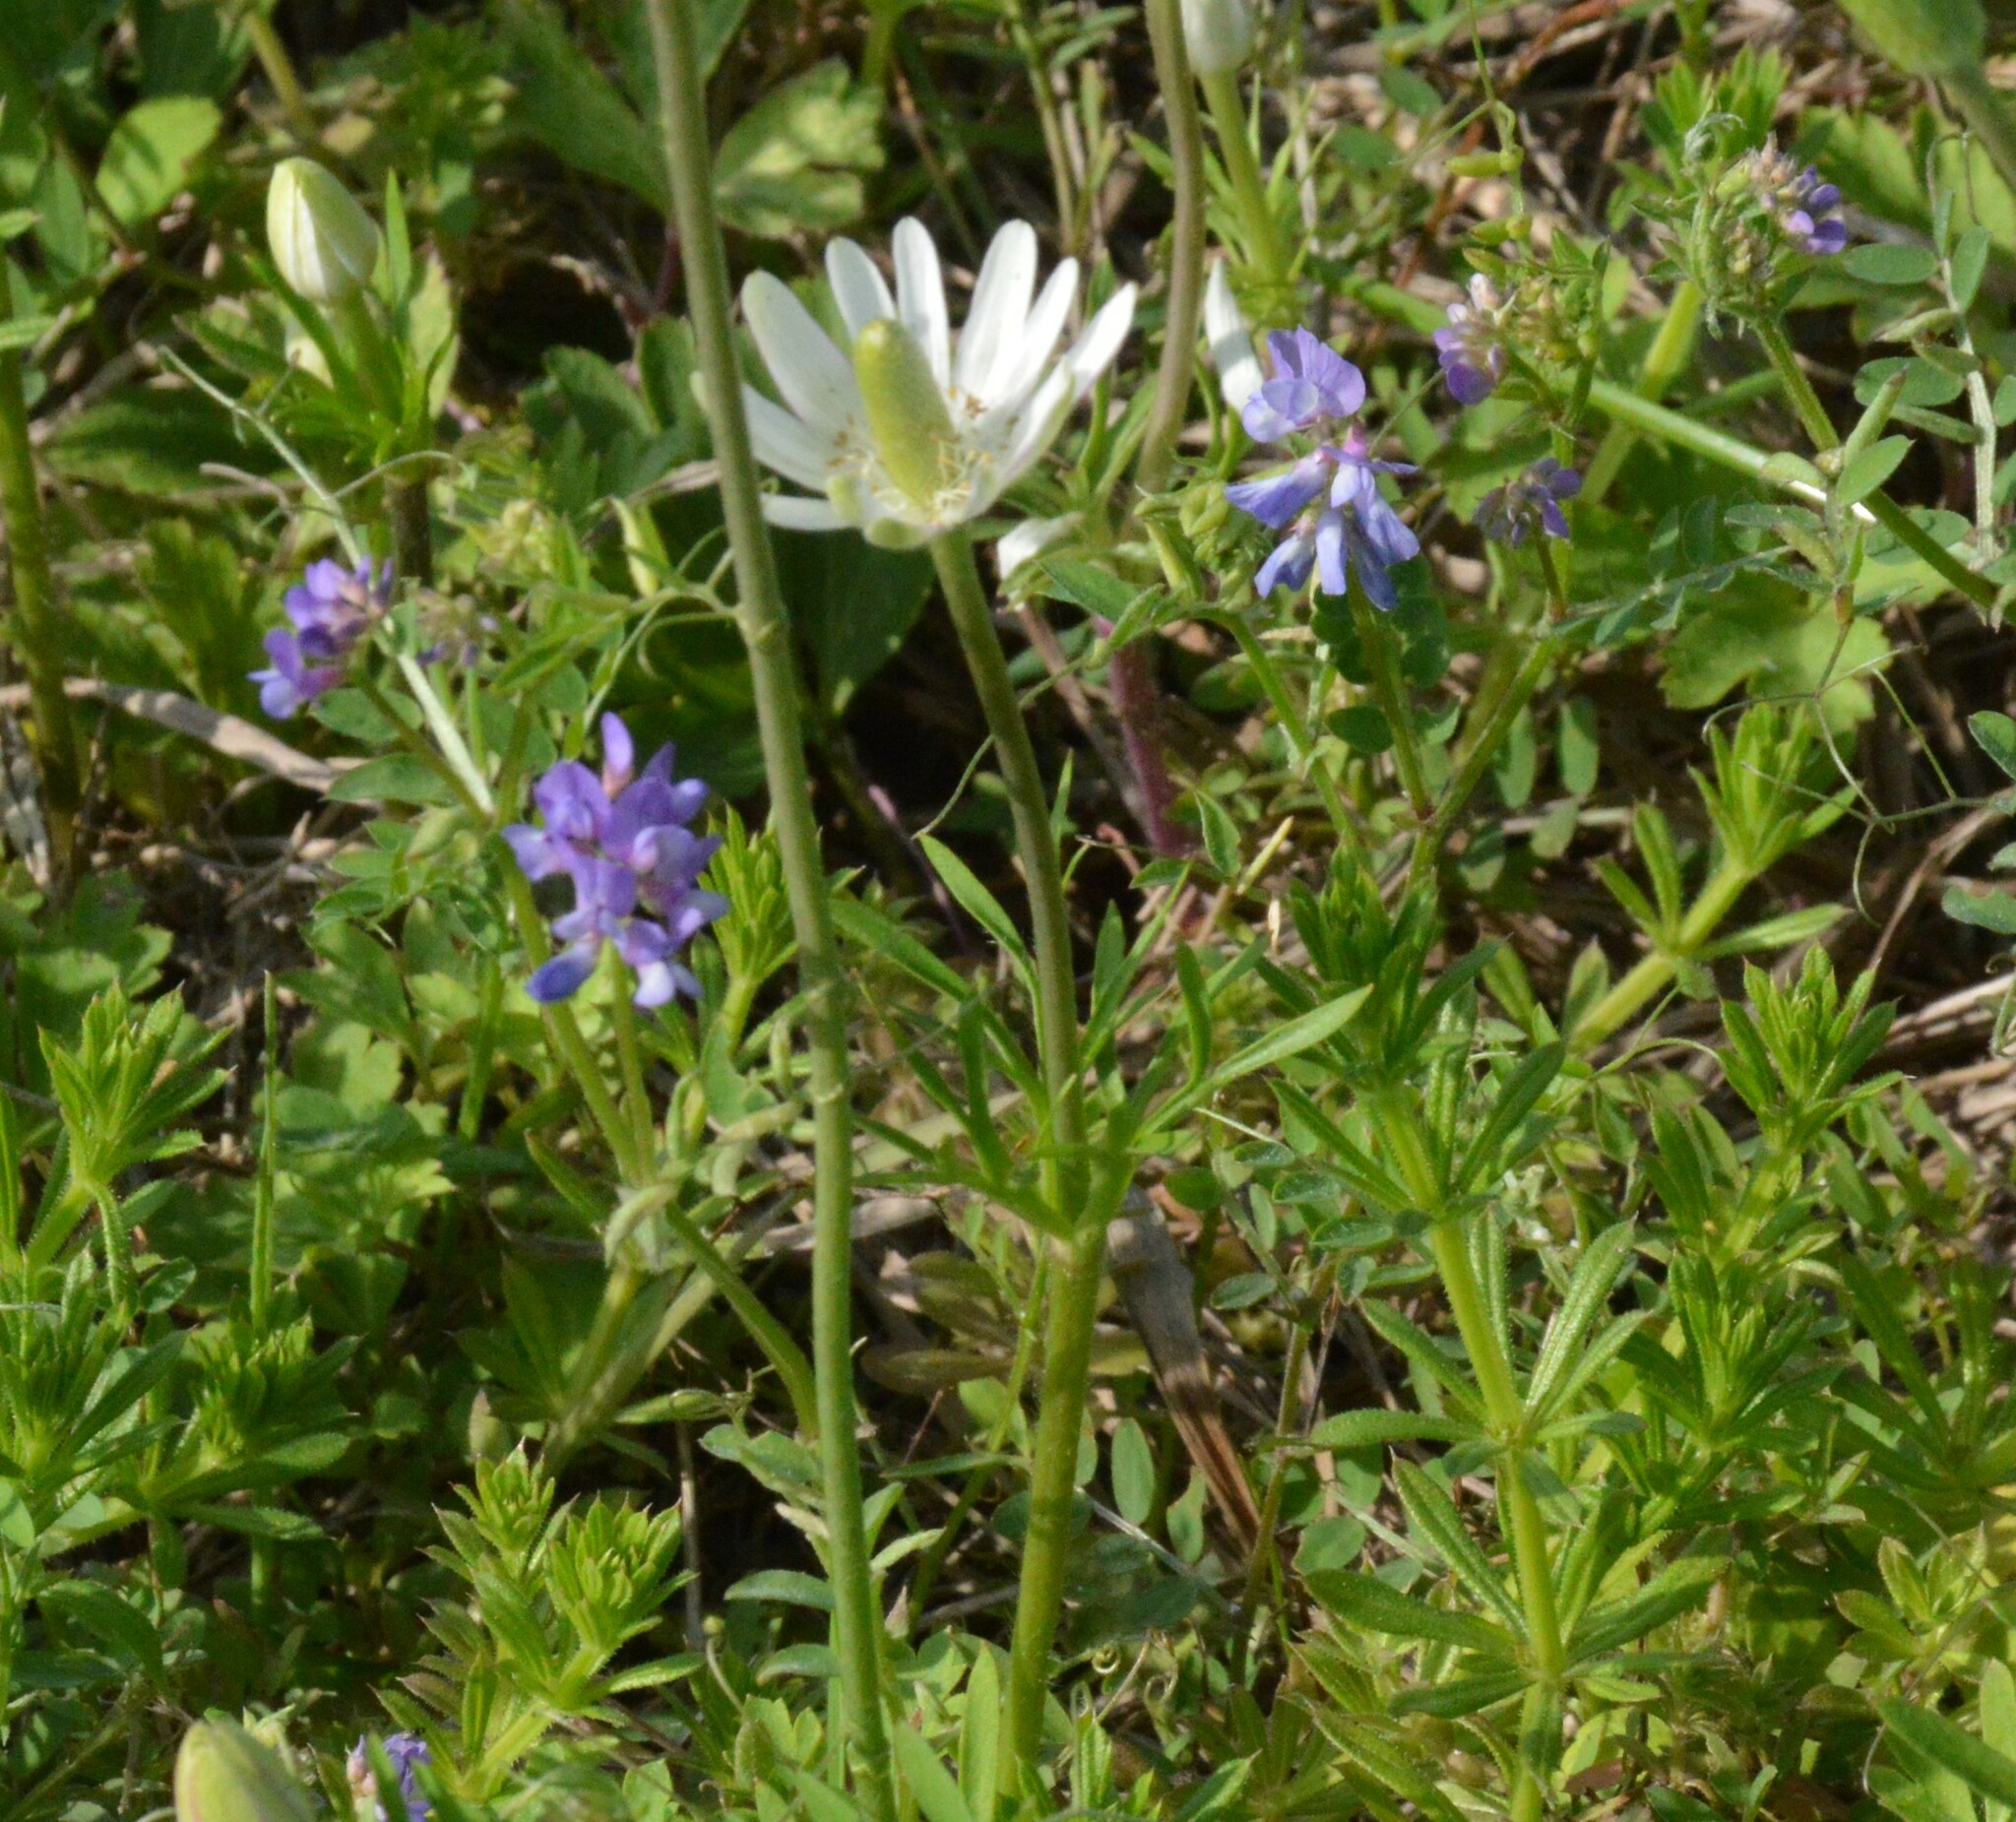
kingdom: Plantae
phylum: Tracheophyta
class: Magnoliopsida
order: Ranunculales
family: Ranunculaceae
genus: Anemone
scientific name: Anemone berlandieri
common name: Ten-petal anemone
